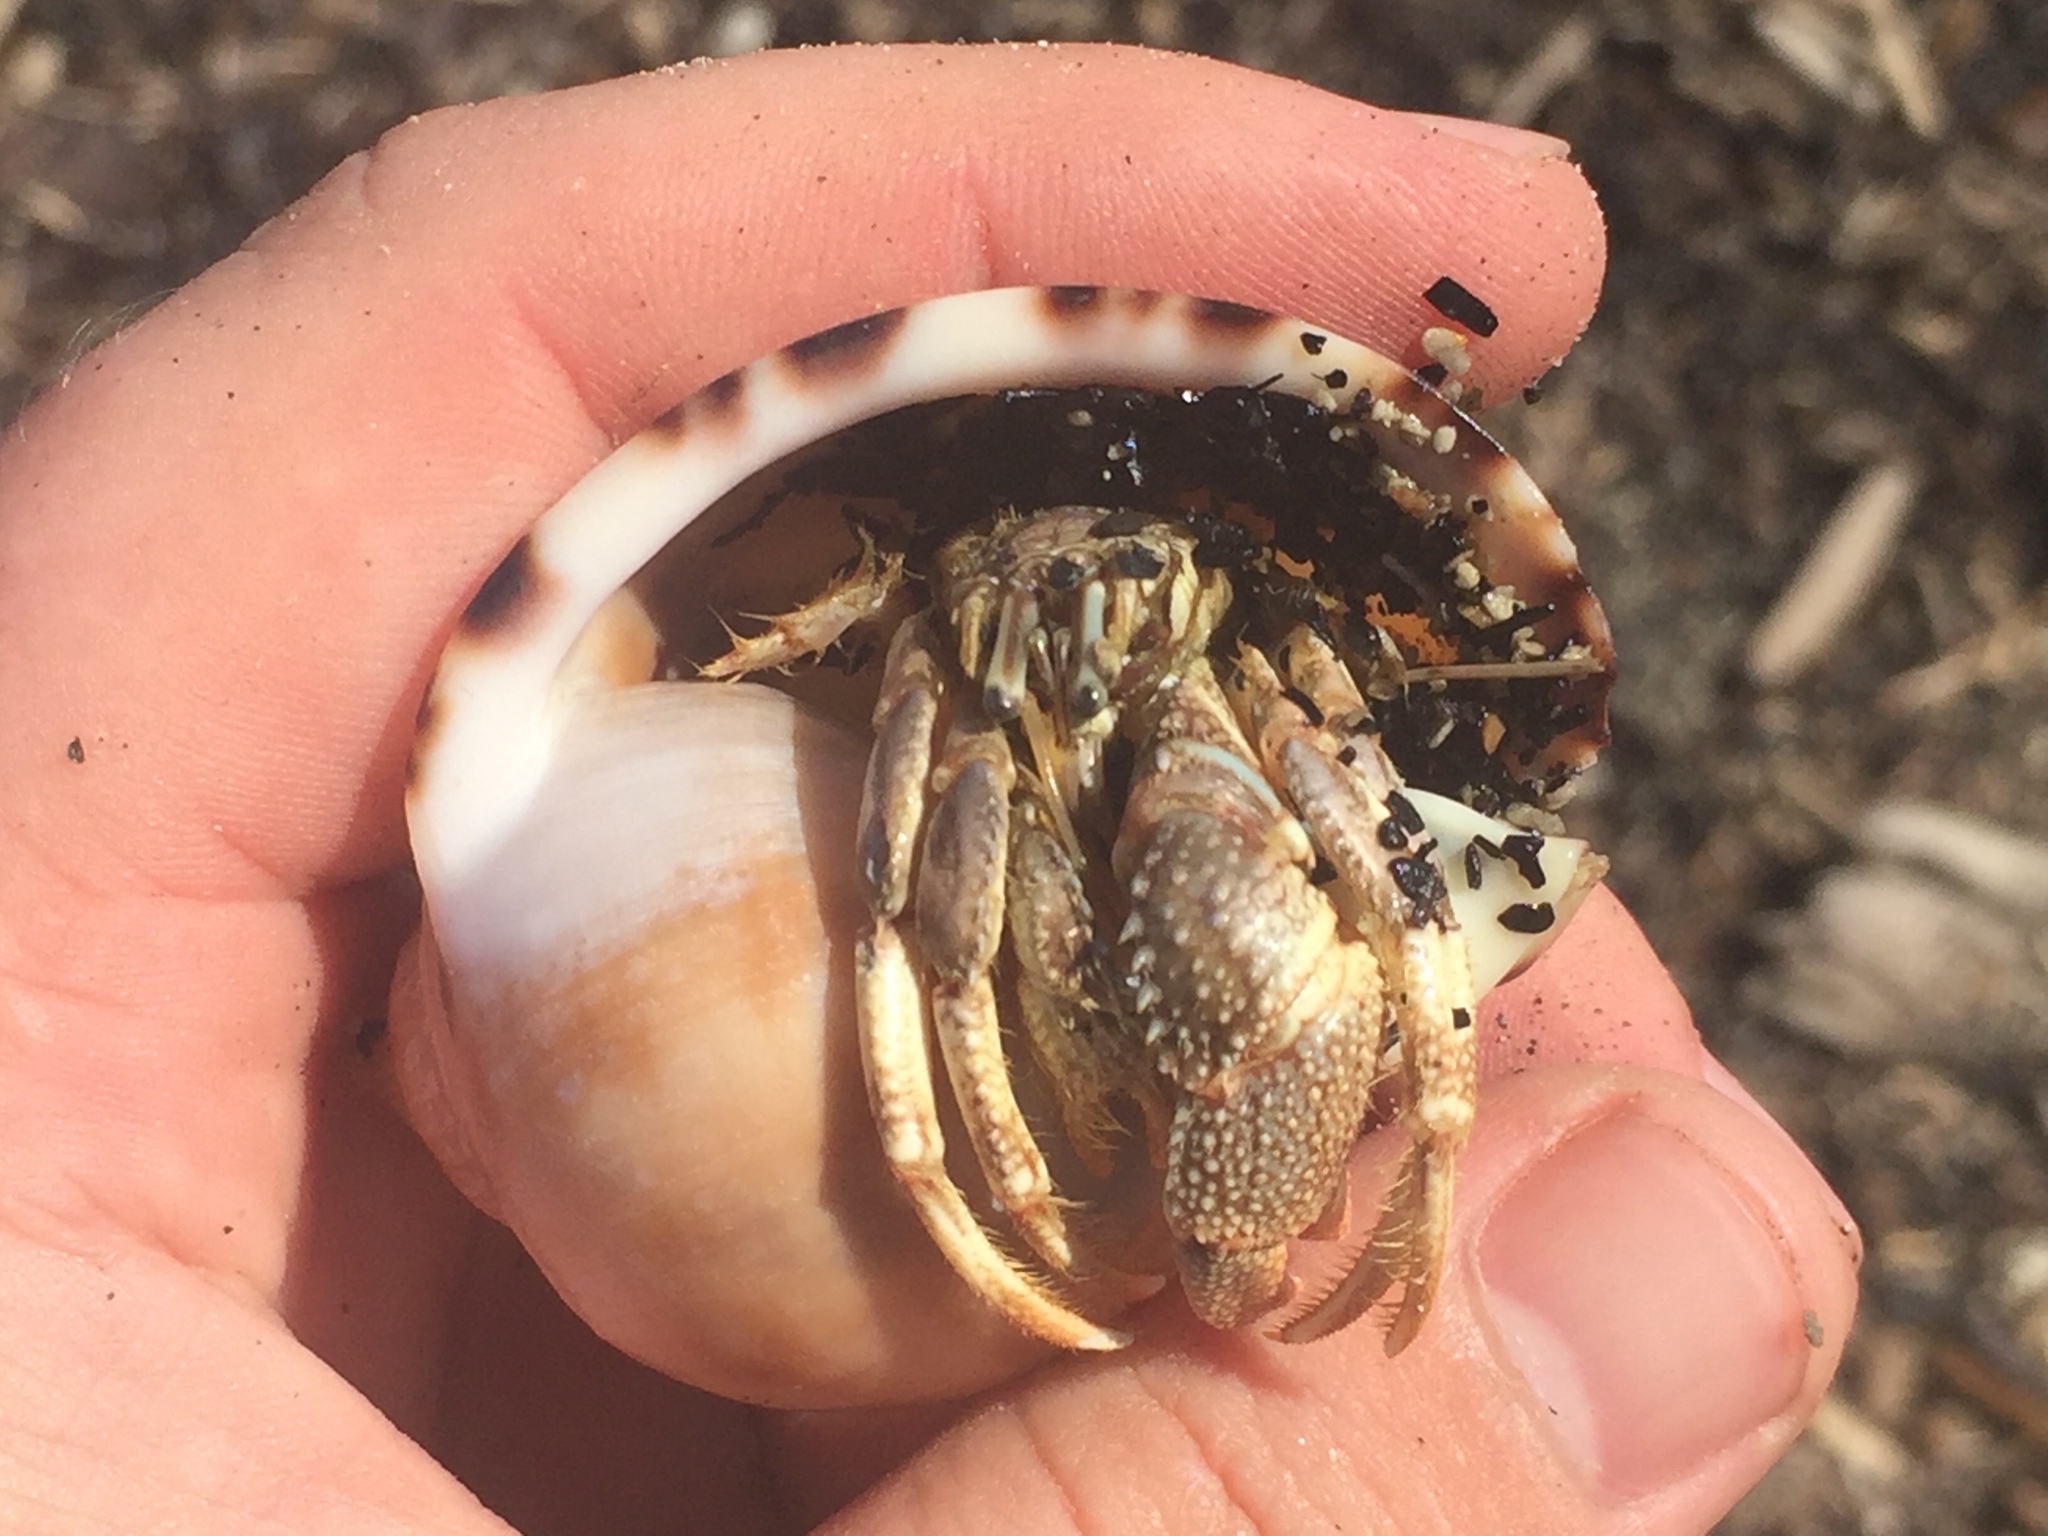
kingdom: Animalia
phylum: Arthropoda
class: Malacostraca
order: Decapoda
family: Diogenidae
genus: Areopaguristes
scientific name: Areopaguristes setosus
